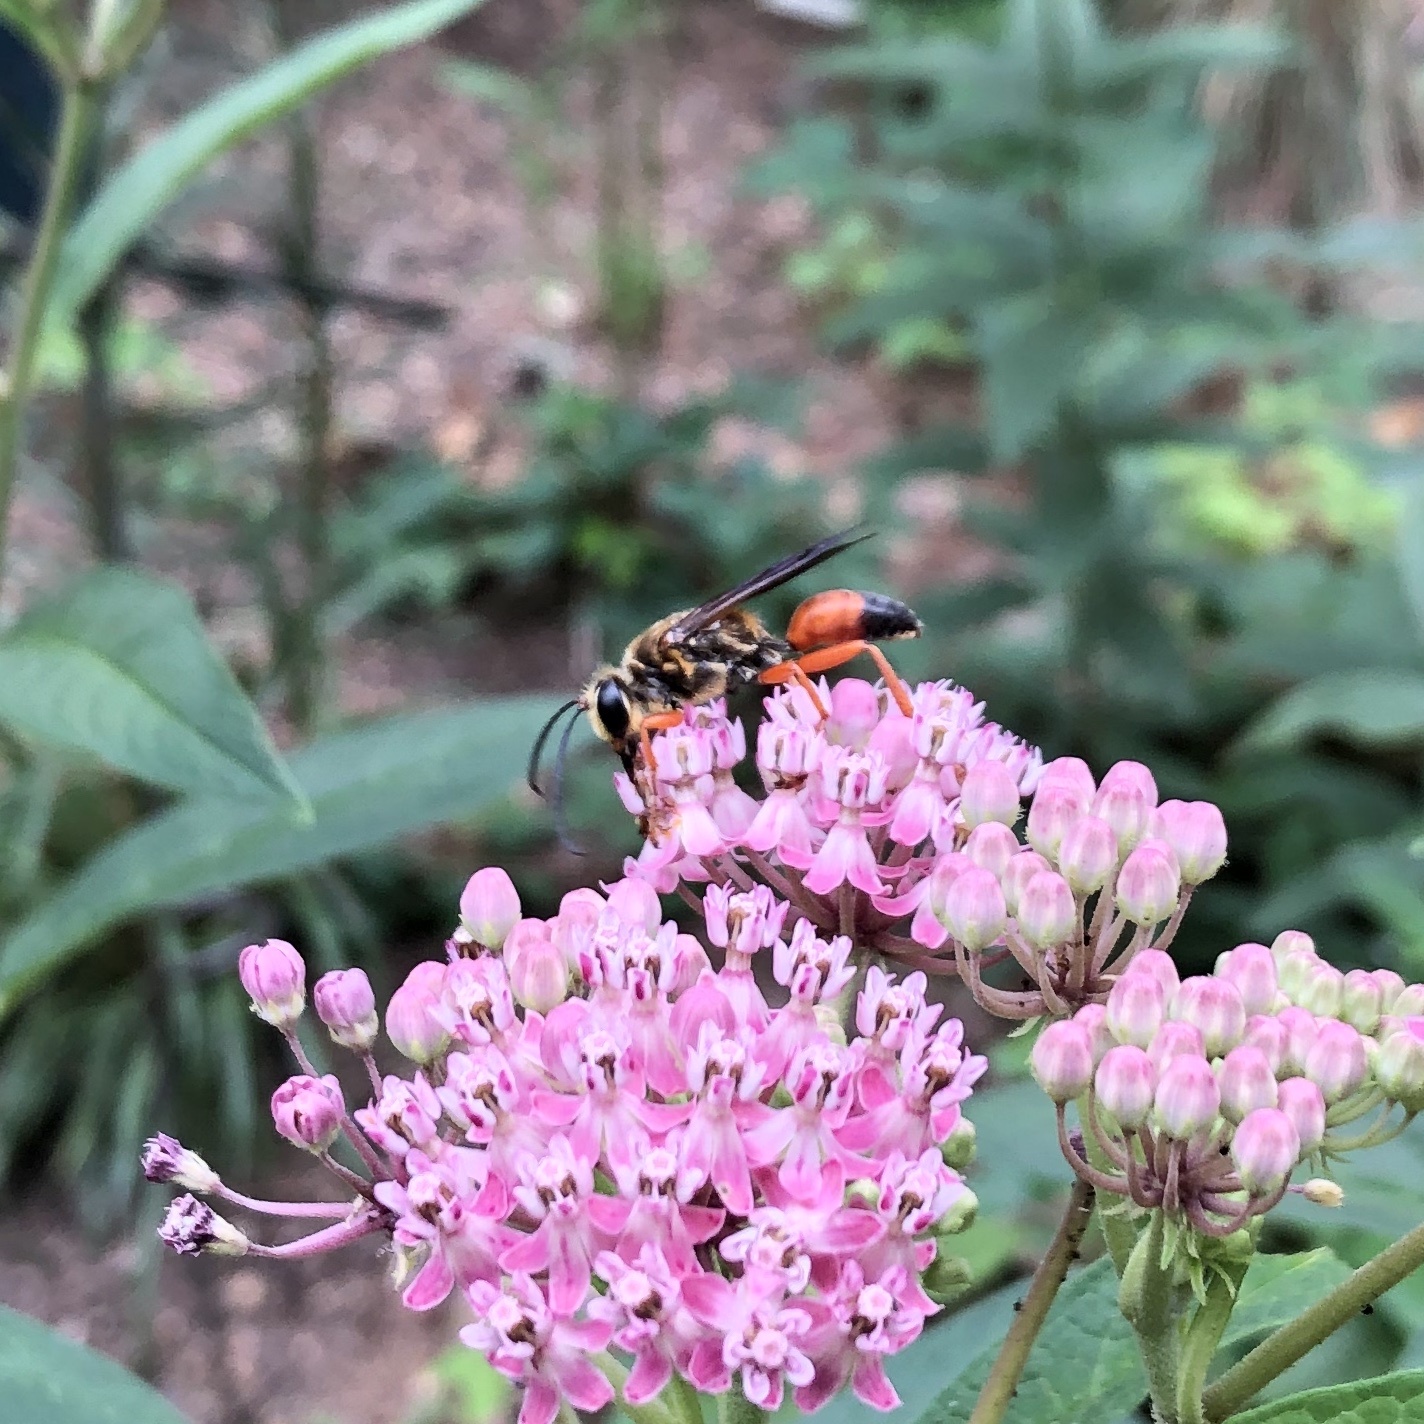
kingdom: Animalia
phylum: Arthropoda
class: Insecta
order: Hymenoptera
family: Sphecidae
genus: Sphex
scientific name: Sphex ichneumoneus
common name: Great golden digger wasp
